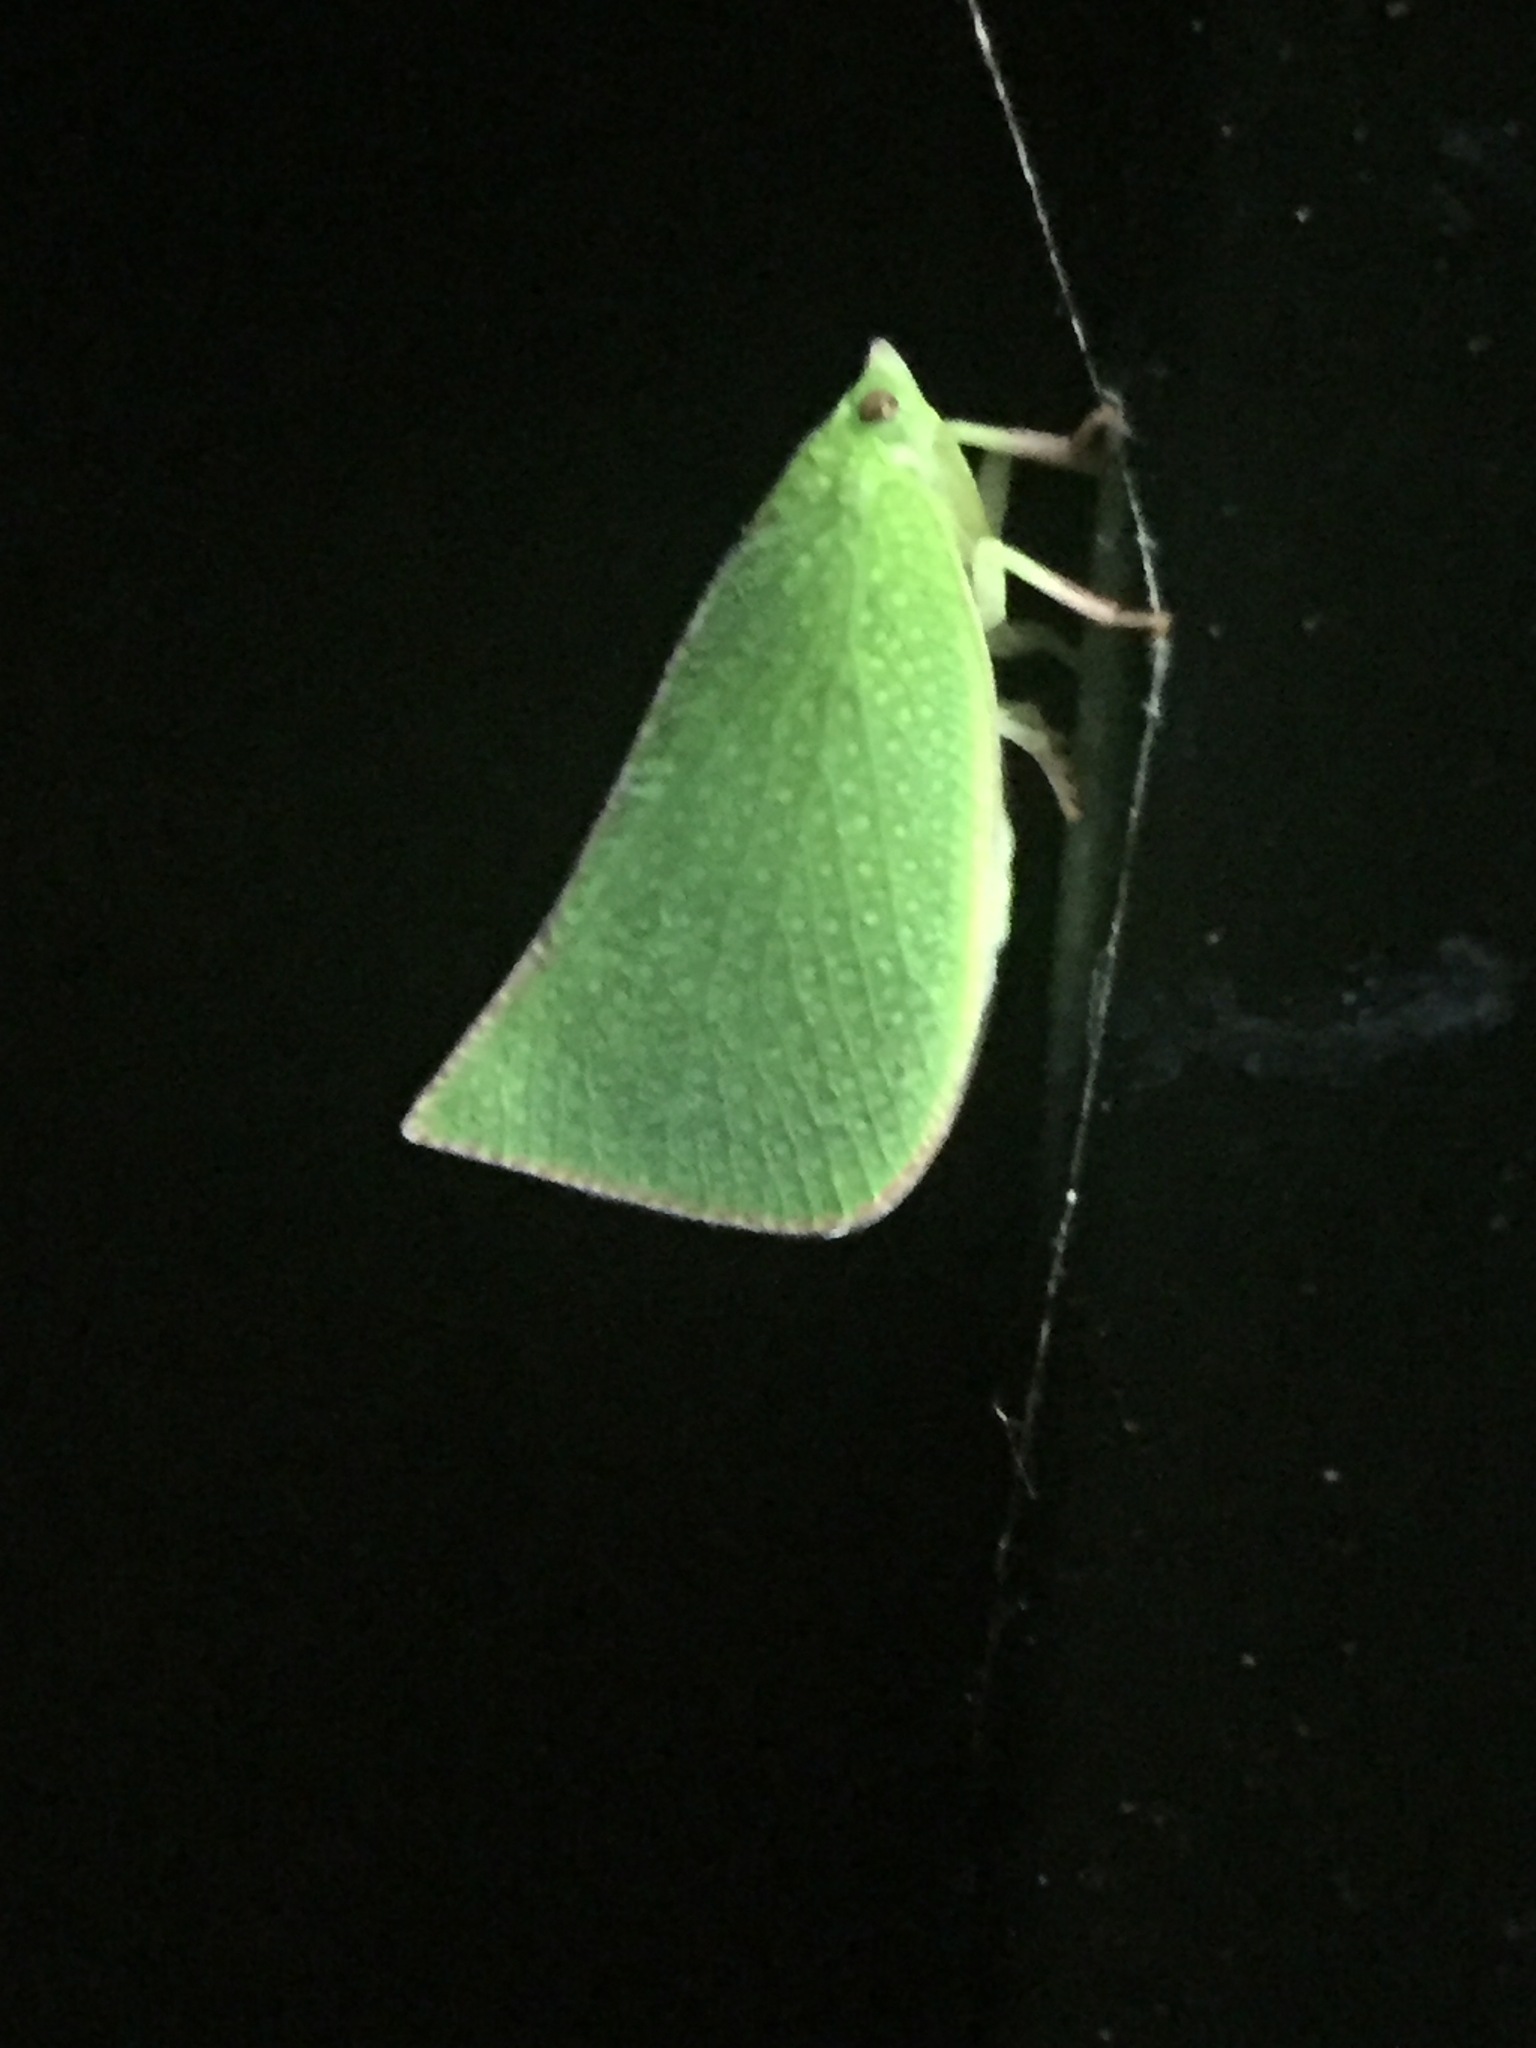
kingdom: Animalia
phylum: Arthropoda
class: Insecta
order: Hemiptera
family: Flatidae
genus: Siphanta
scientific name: Siphanta acuta
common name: Torpedo bug
